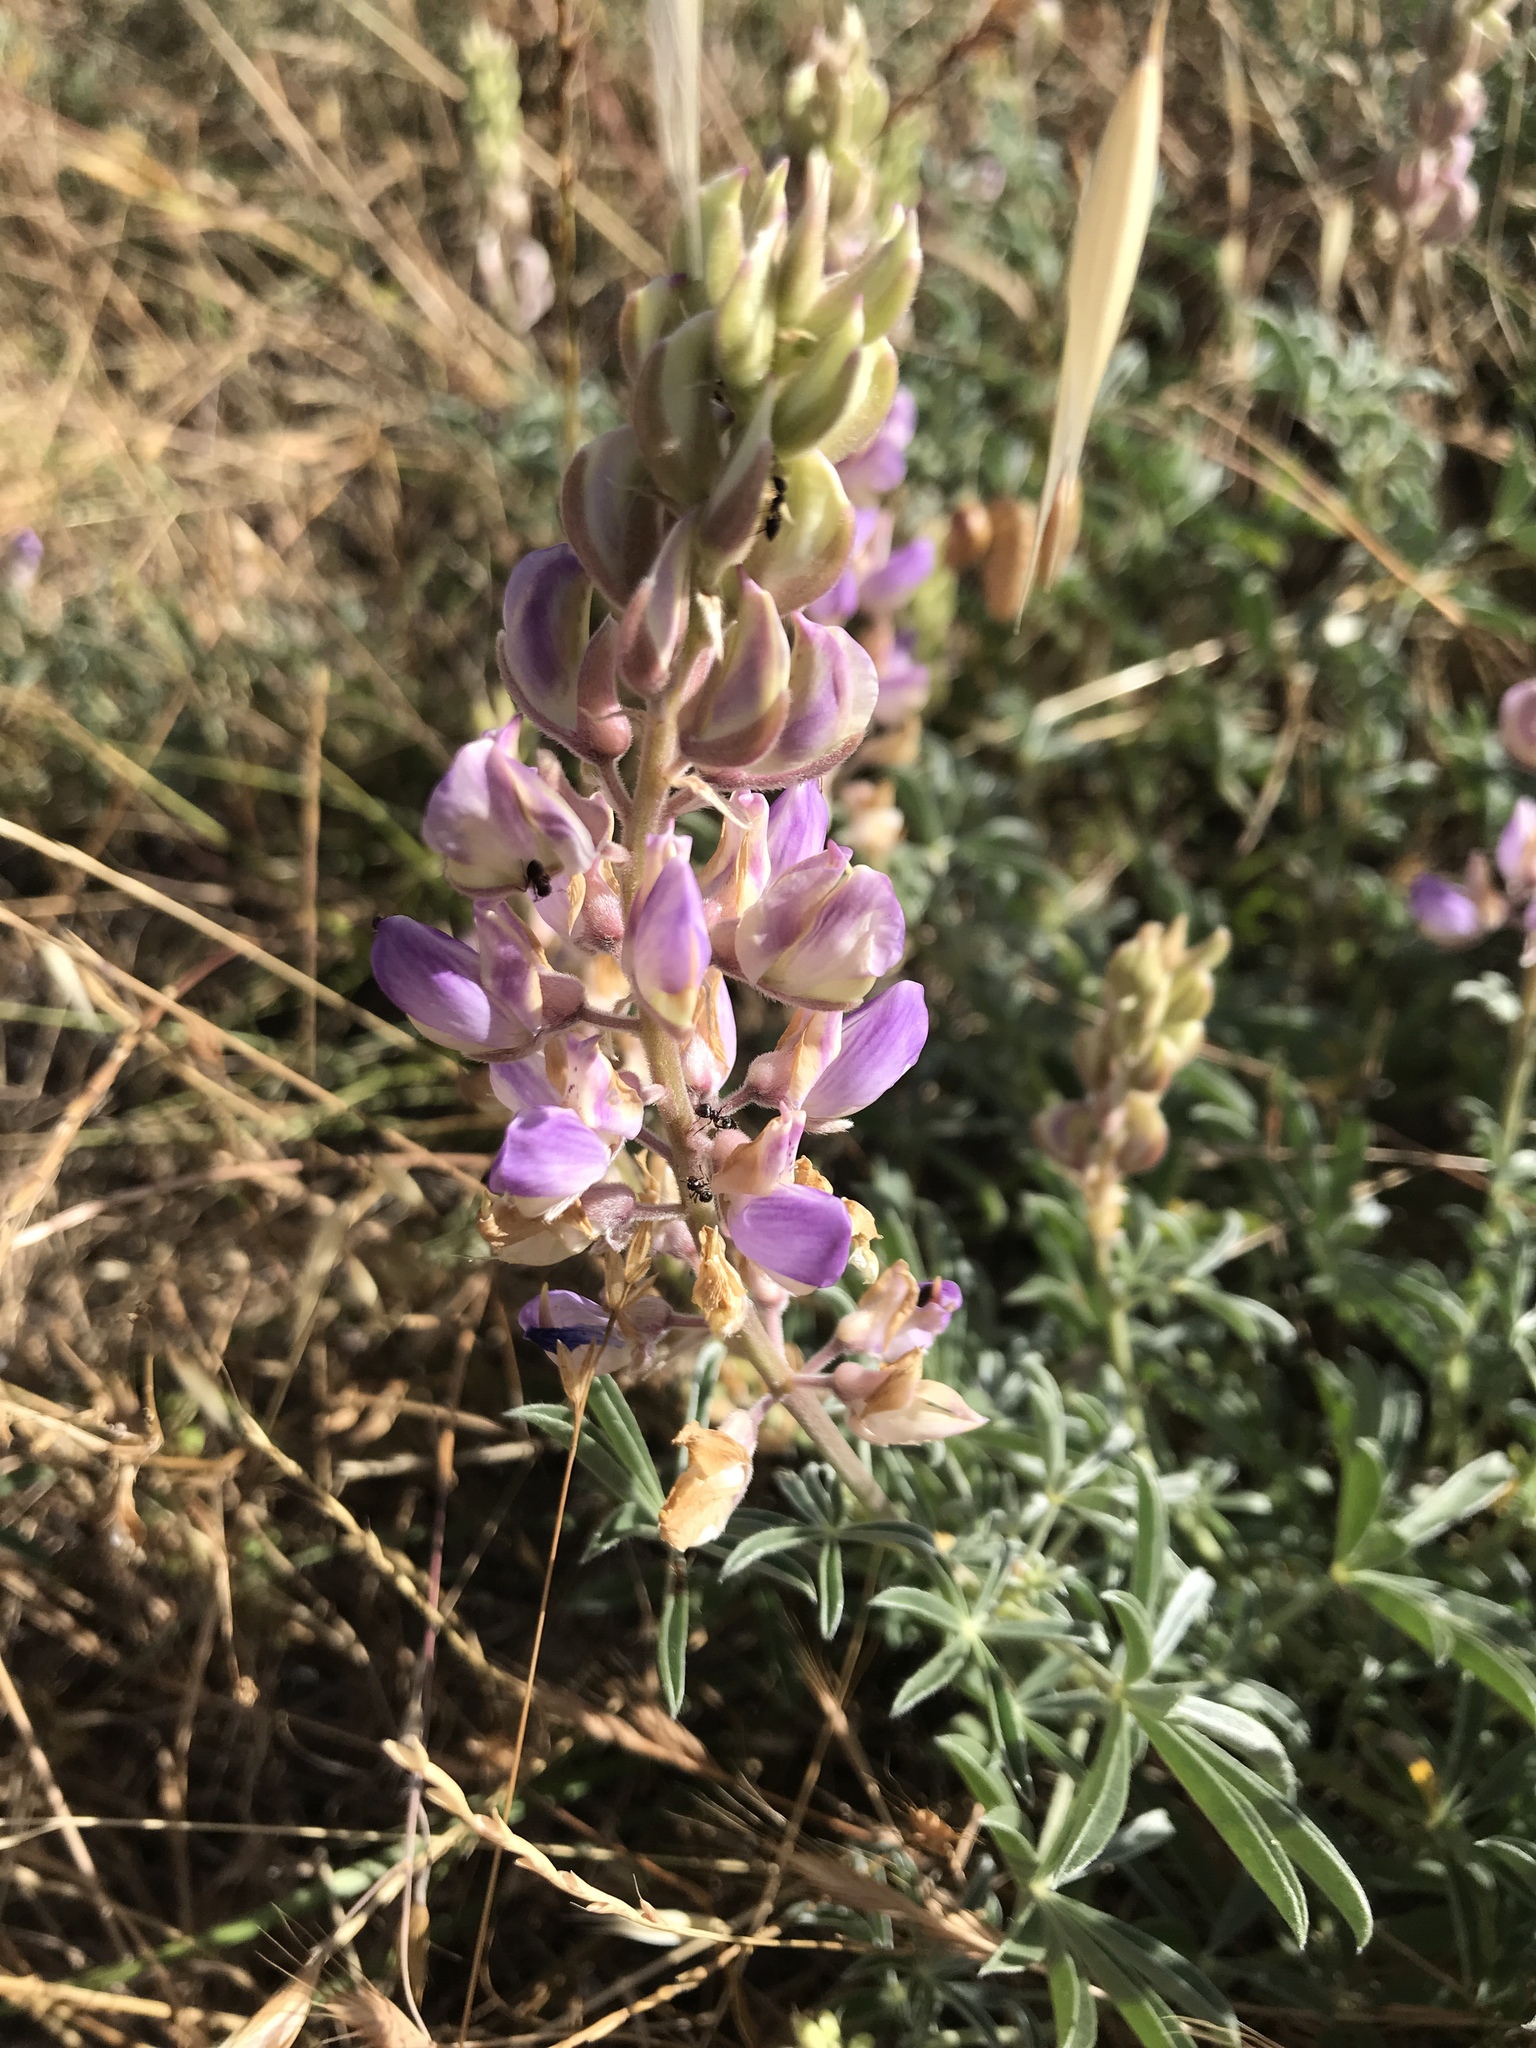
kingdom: Plantae
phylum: Tracheophyta
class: Magnoliopsida
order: Fabales
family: Fabaceae
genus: Lupinus
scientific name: Lupinus formosus
